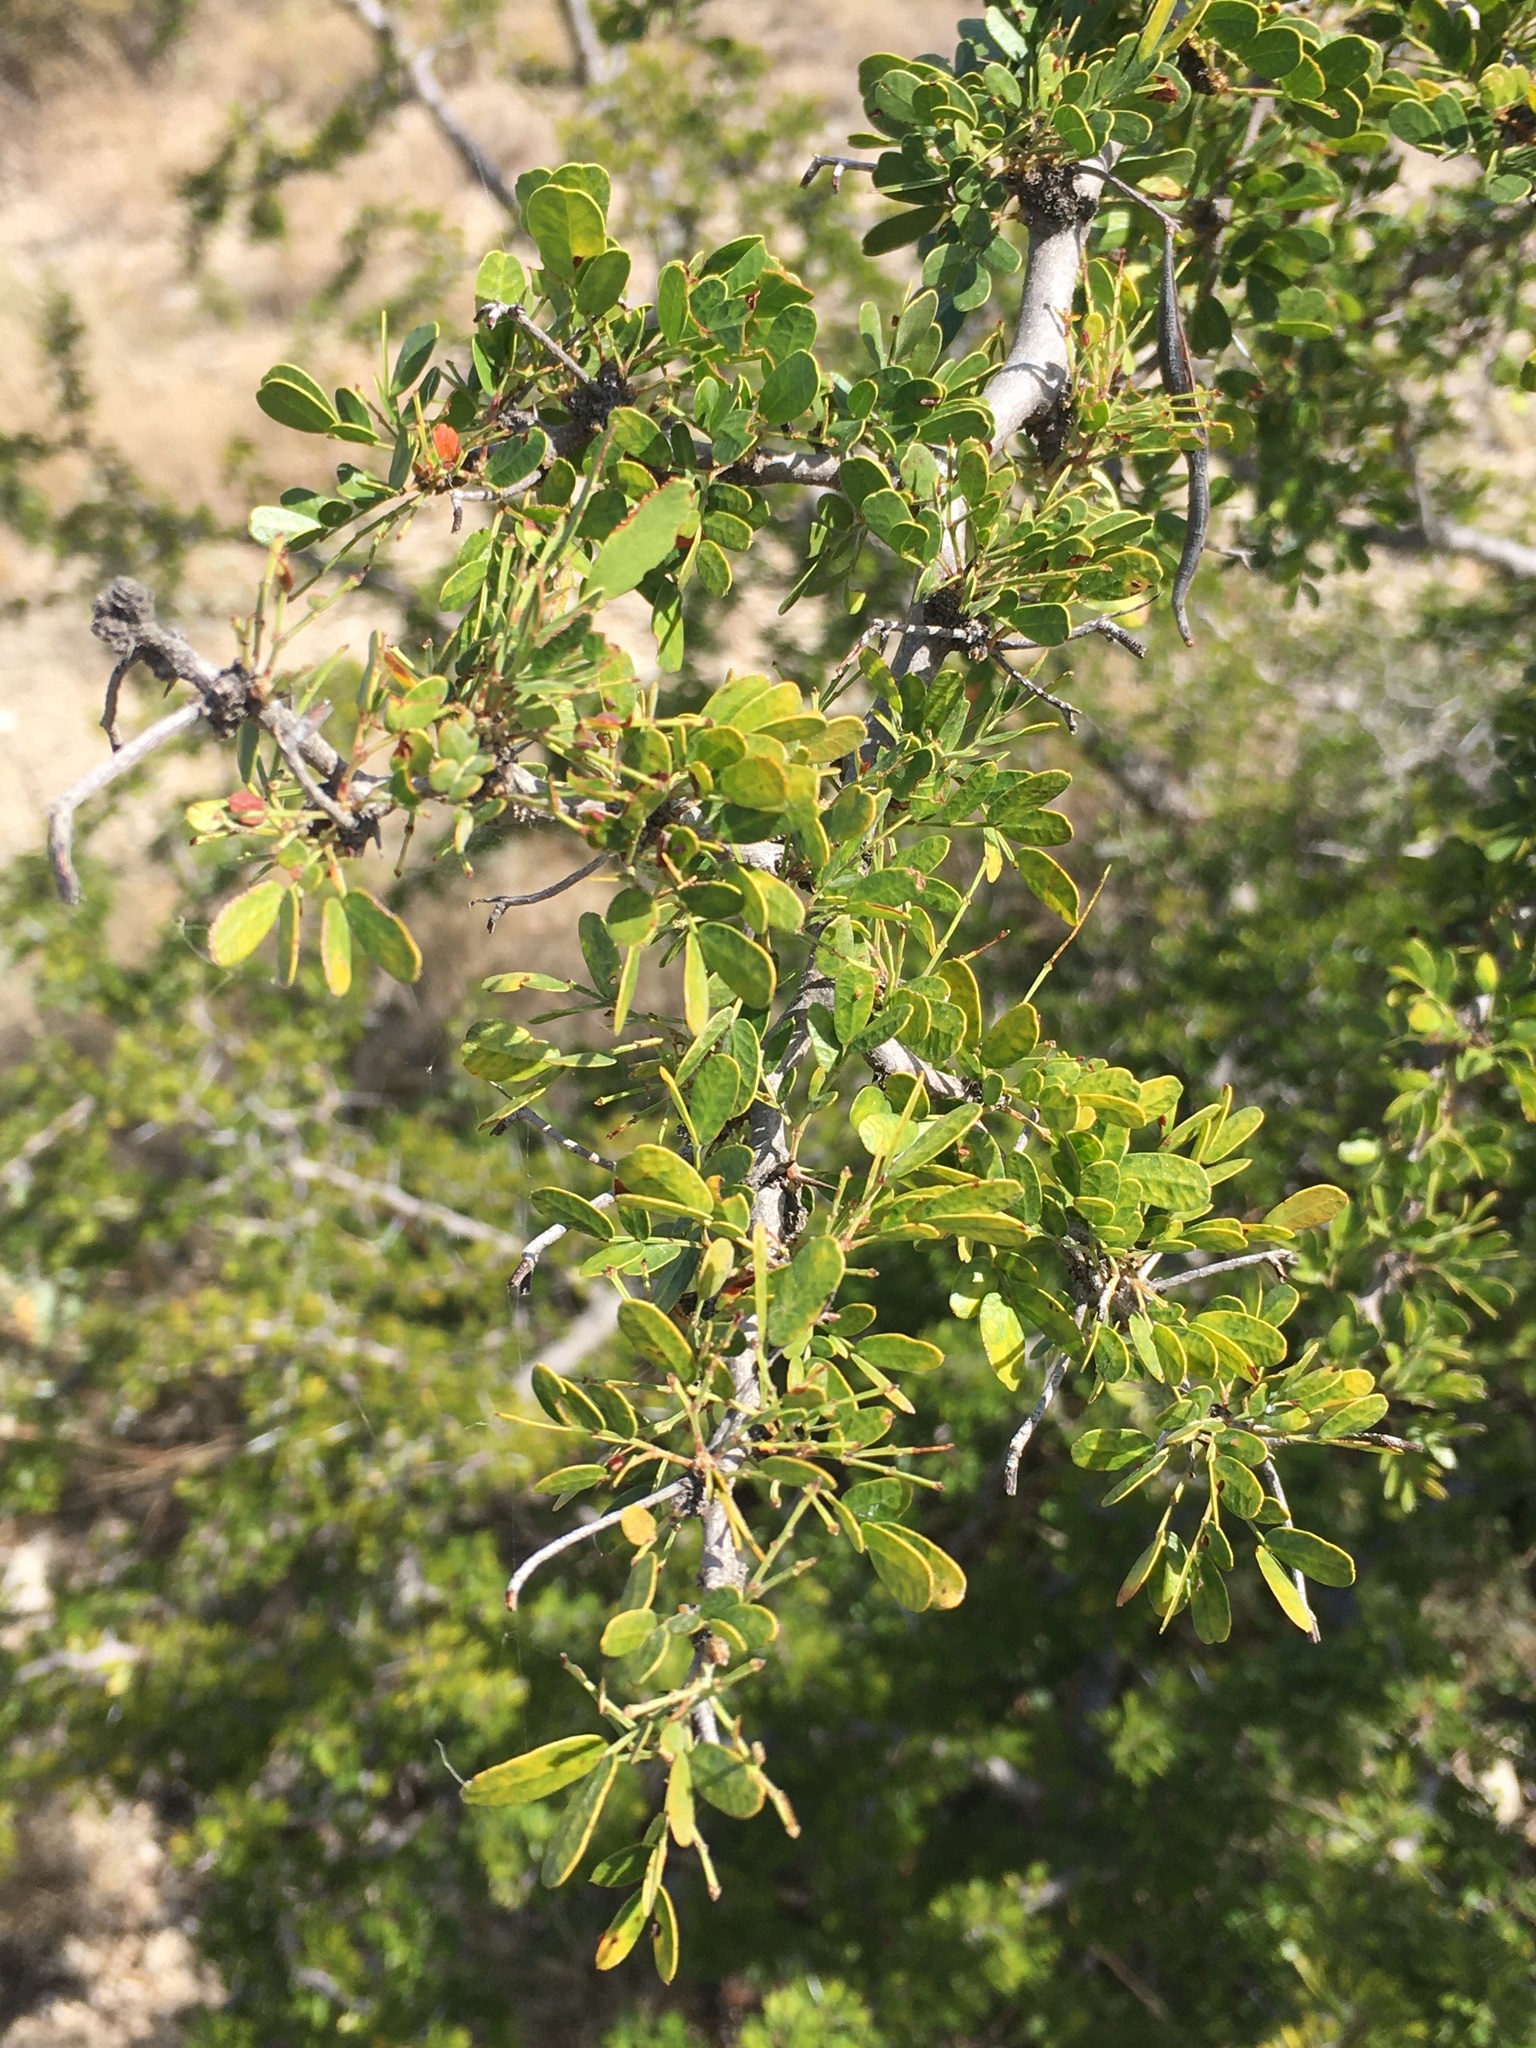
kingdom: Plantae
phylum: Tracheophyta
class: Magnoliopsida
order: Fabales
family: Fabaceae
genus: Vachellia
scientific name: Vachellia rigidula
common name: Blackbrush
